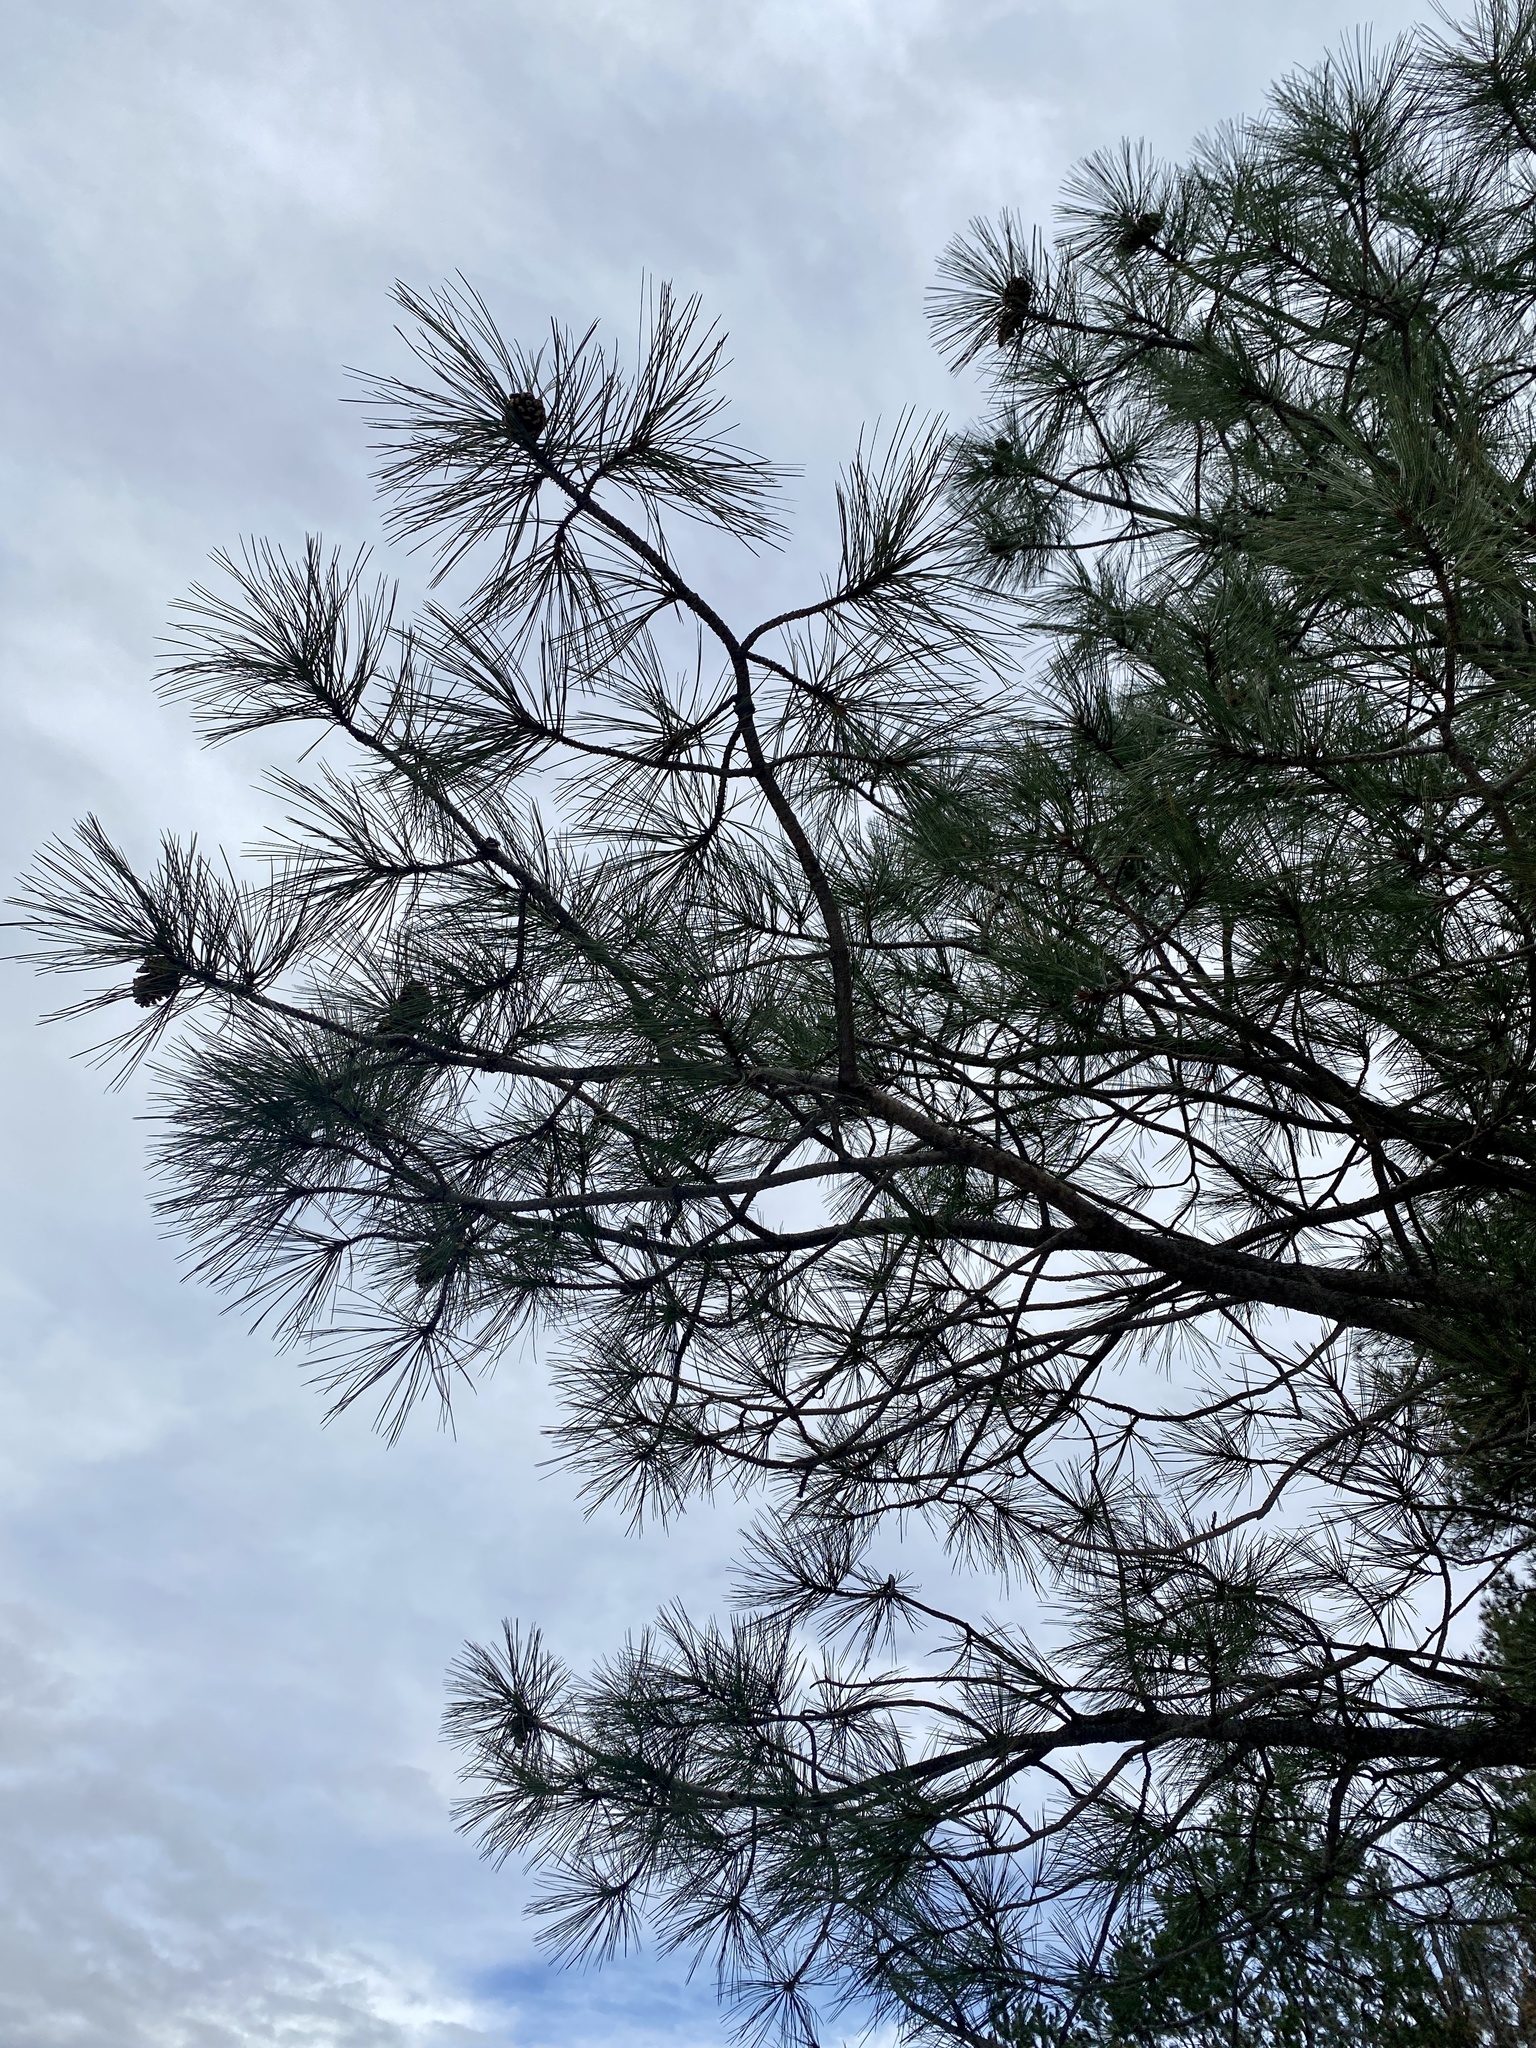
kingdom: Plantae
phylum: Tracheophyta
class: Pinopsida
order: Pinales
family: Pinaceae
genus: Pinus
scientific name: Pinus ponderosa
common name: Western yellow-pine
